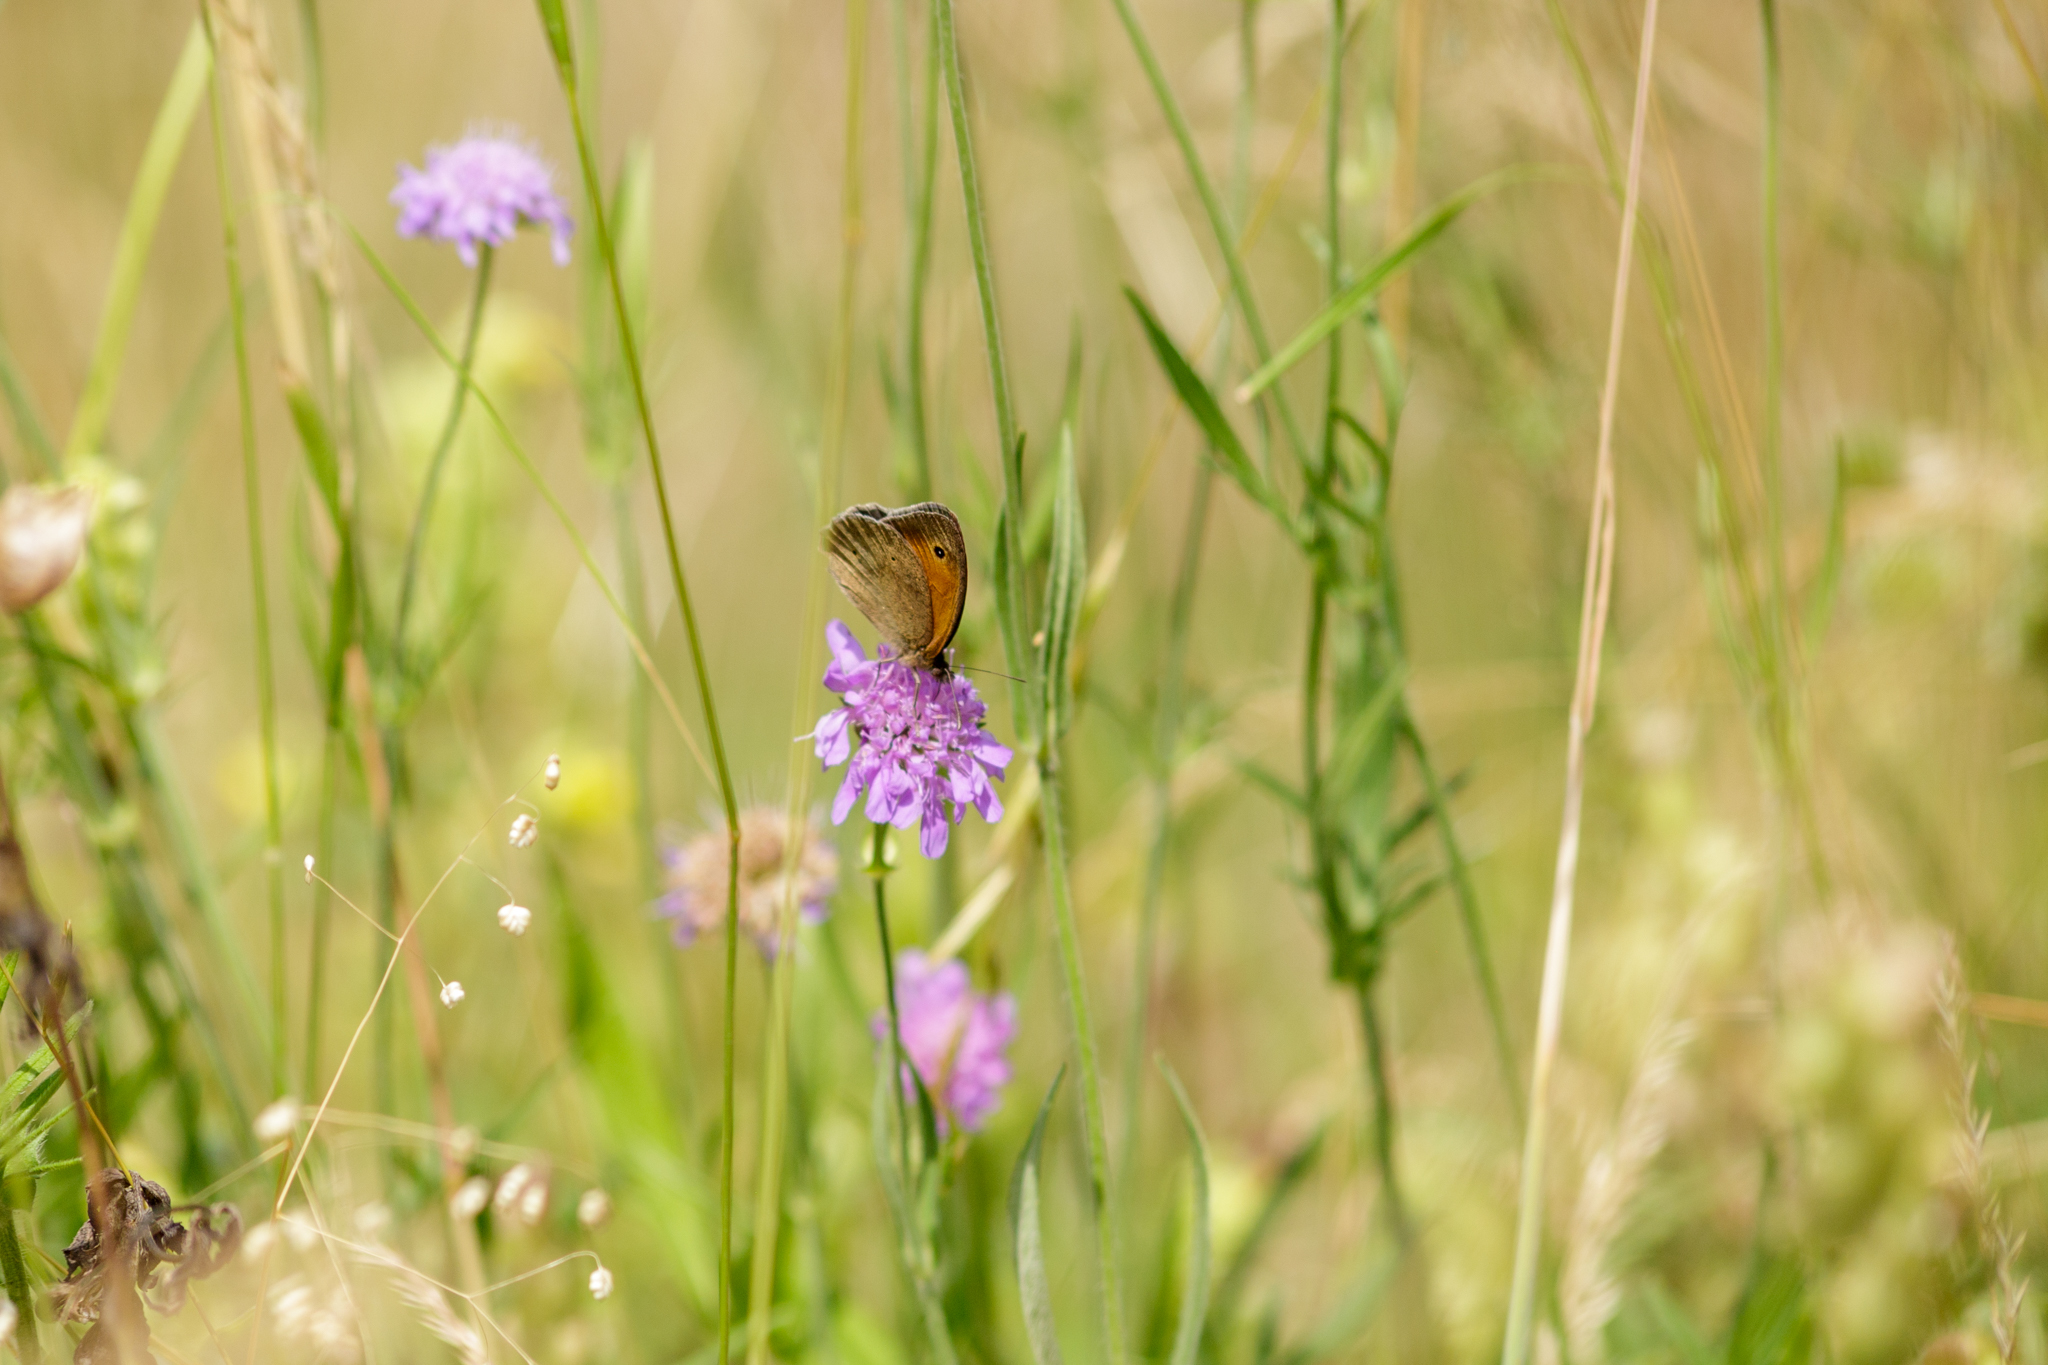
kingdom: Animalia
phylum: Arthropoda
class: Insecta
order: Lepidoptera
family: Nymphalidae
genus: Maniola
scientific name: Maniola jurtina
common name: Meadow brown
